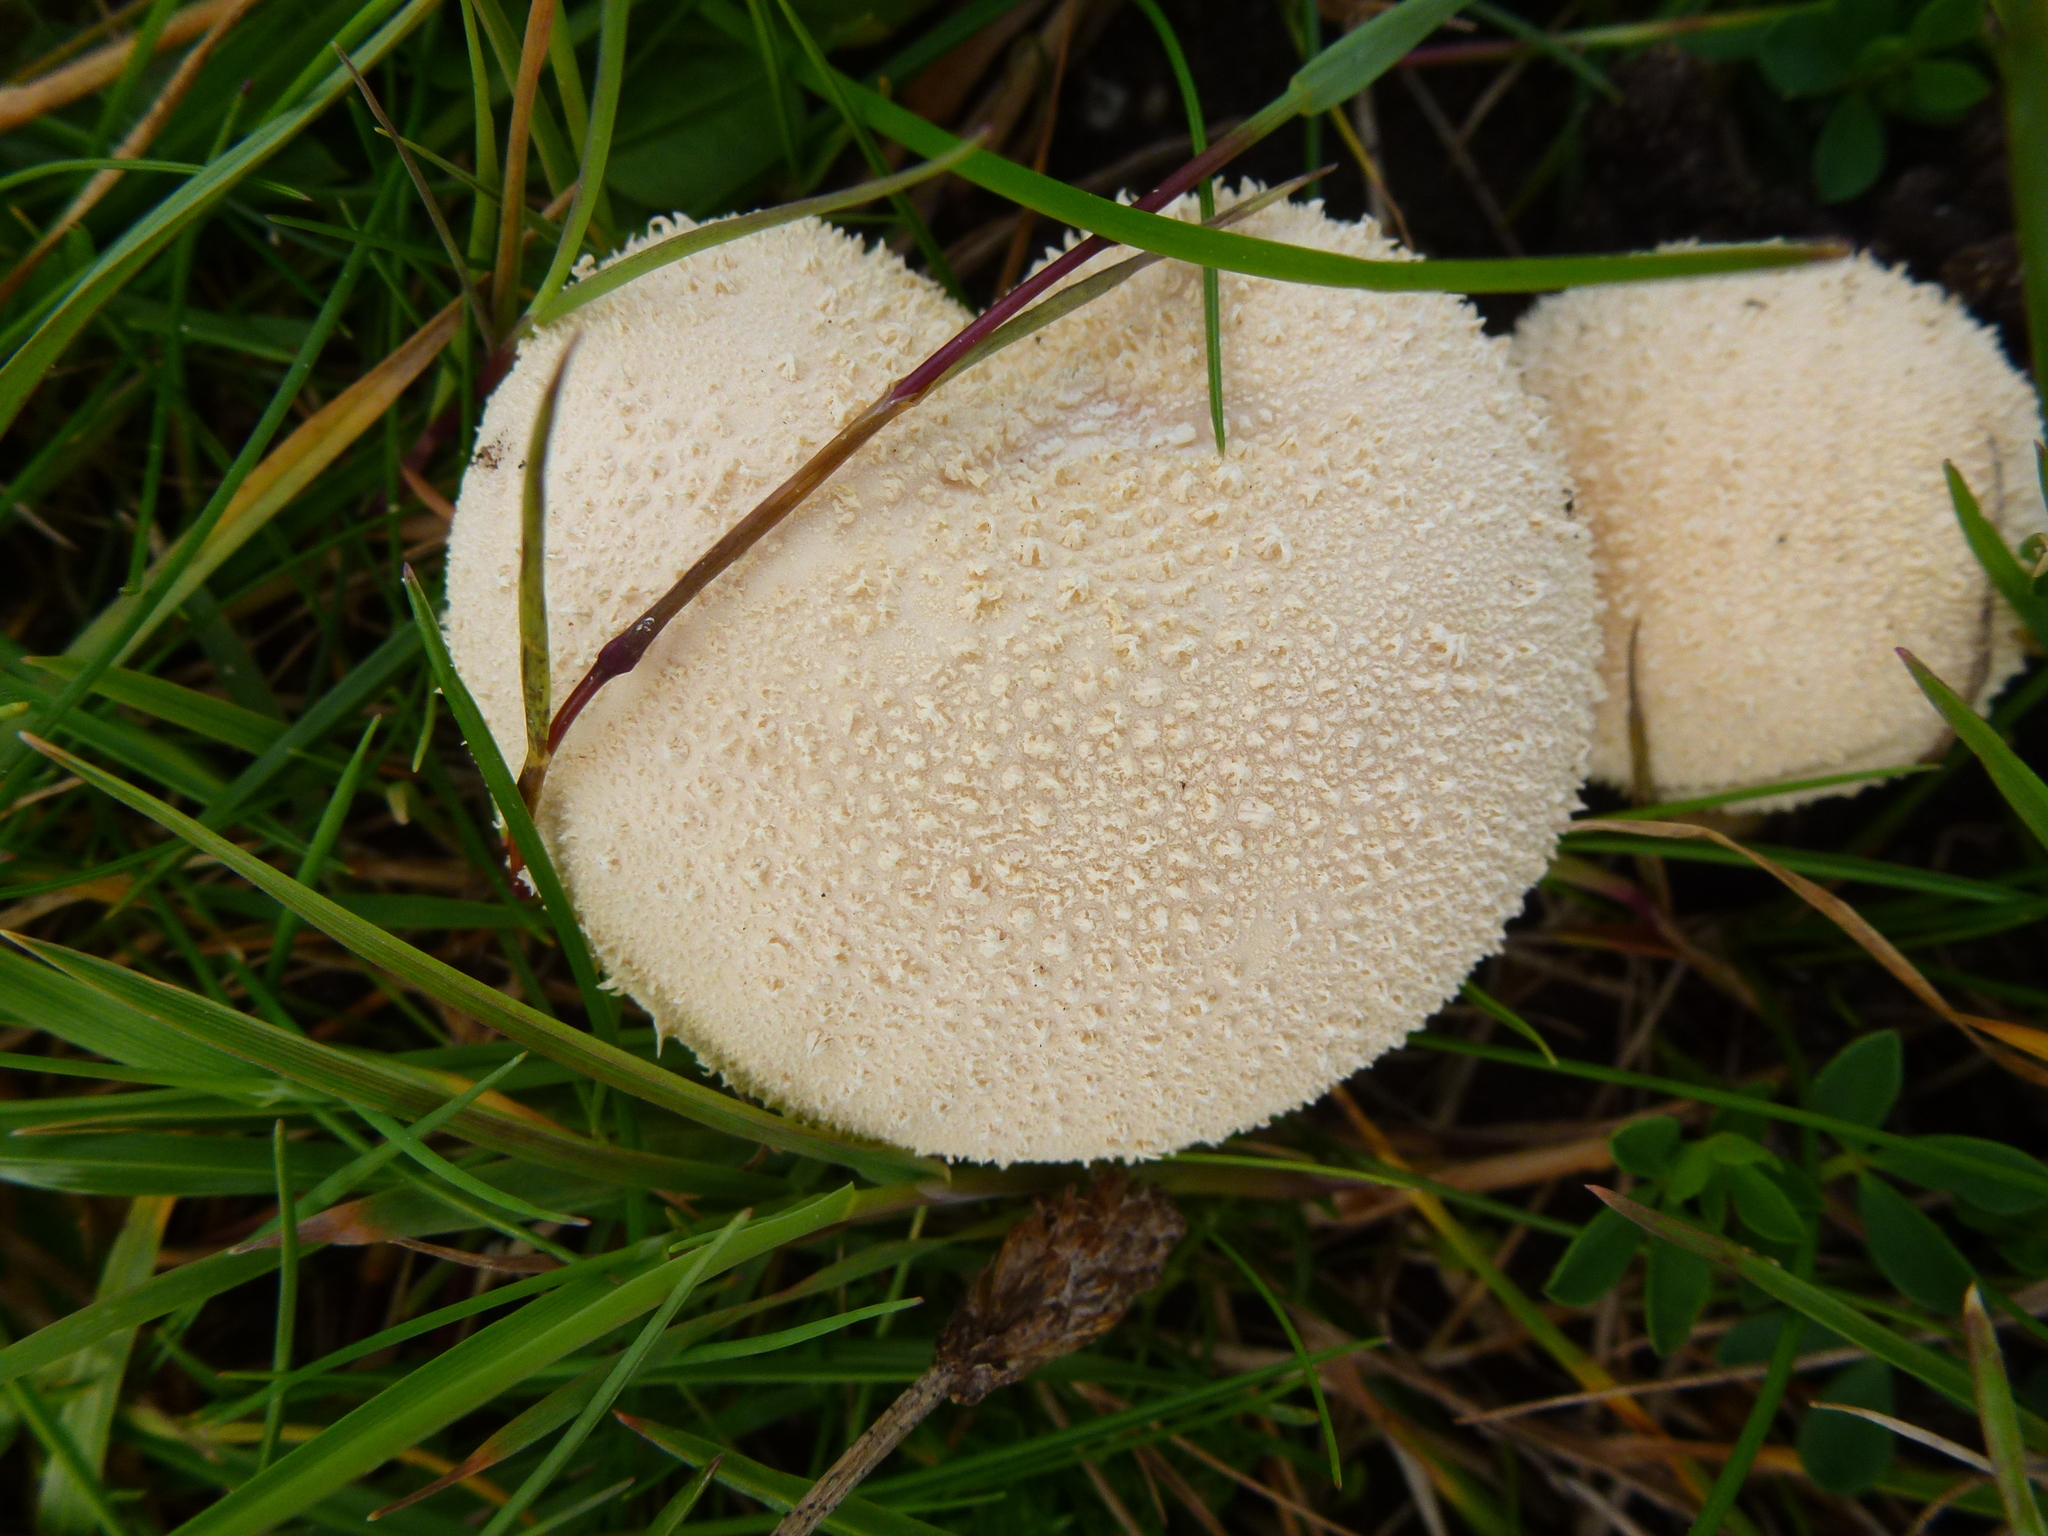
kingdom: Fungi
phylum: Basidiomycota
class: Agaricomycetes
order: Agaricales
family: Lycoperdaceae
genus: Lycoperdon
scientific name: Lycoperdon perlatum
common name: Common puffball
